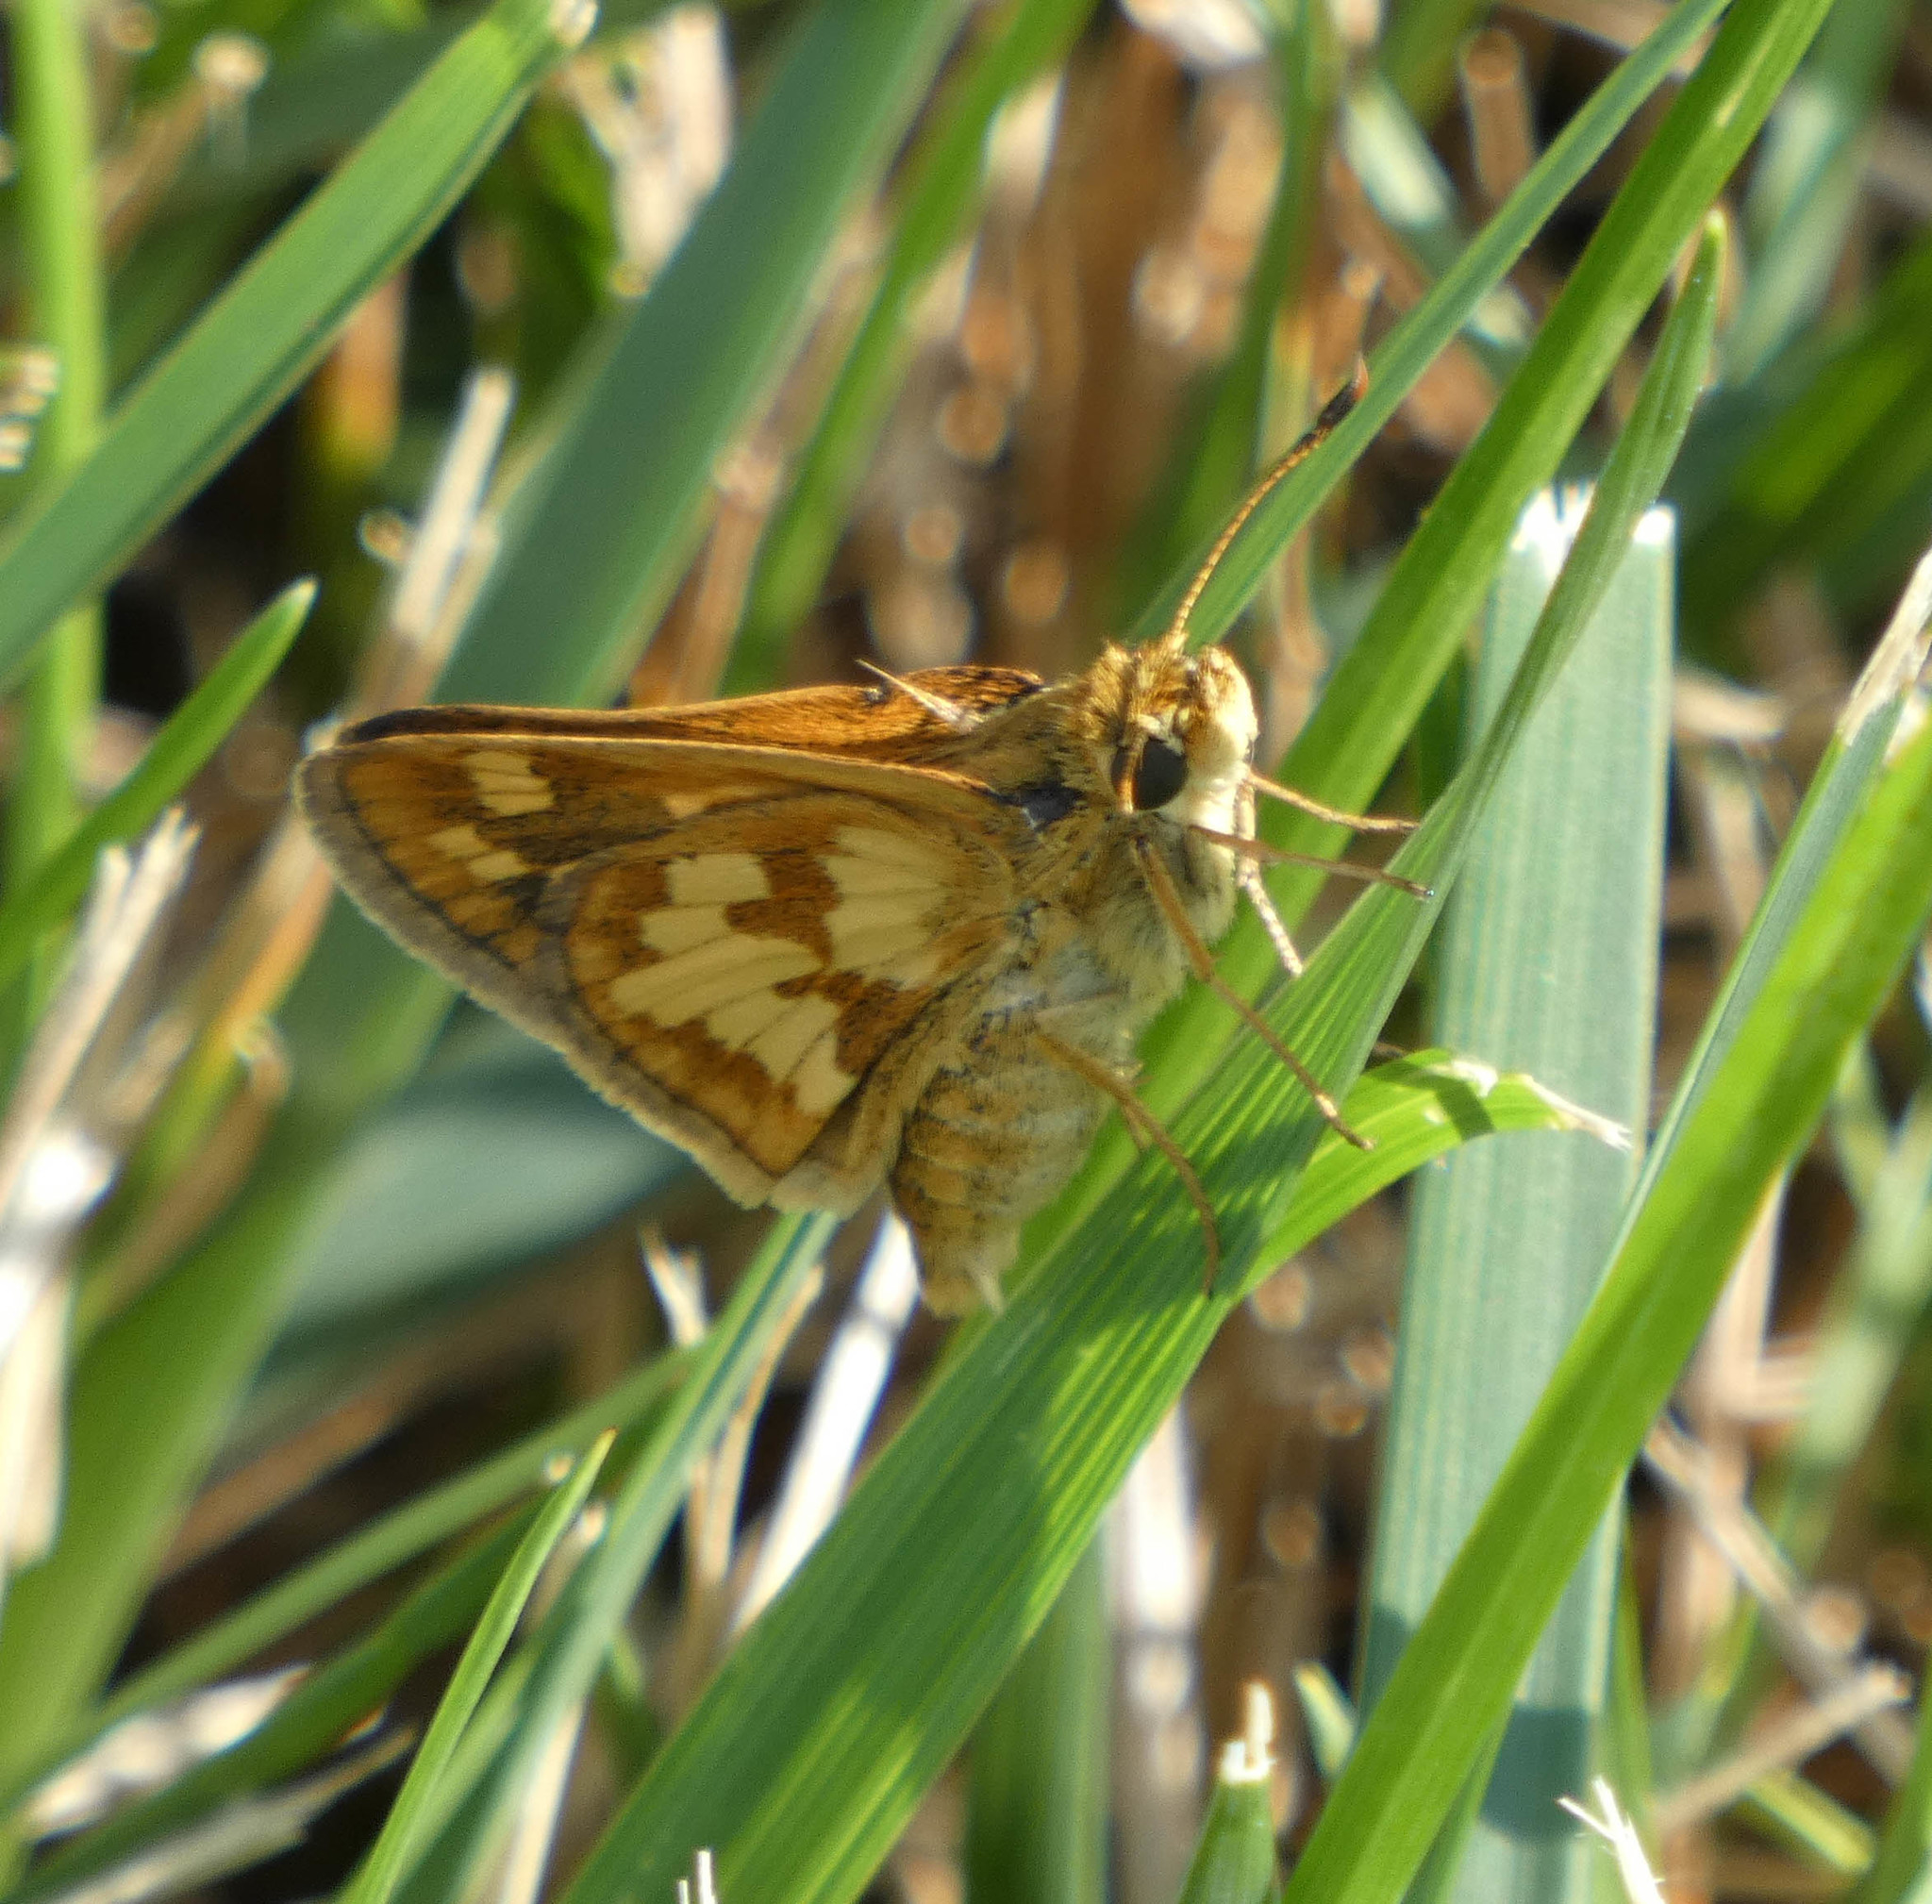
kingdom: Animalia
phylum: Arthropoda
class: Insecta
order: Lepidoptera
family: Hesperiidae
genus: Polites
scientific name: Polites coras
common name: Peck's skipper
